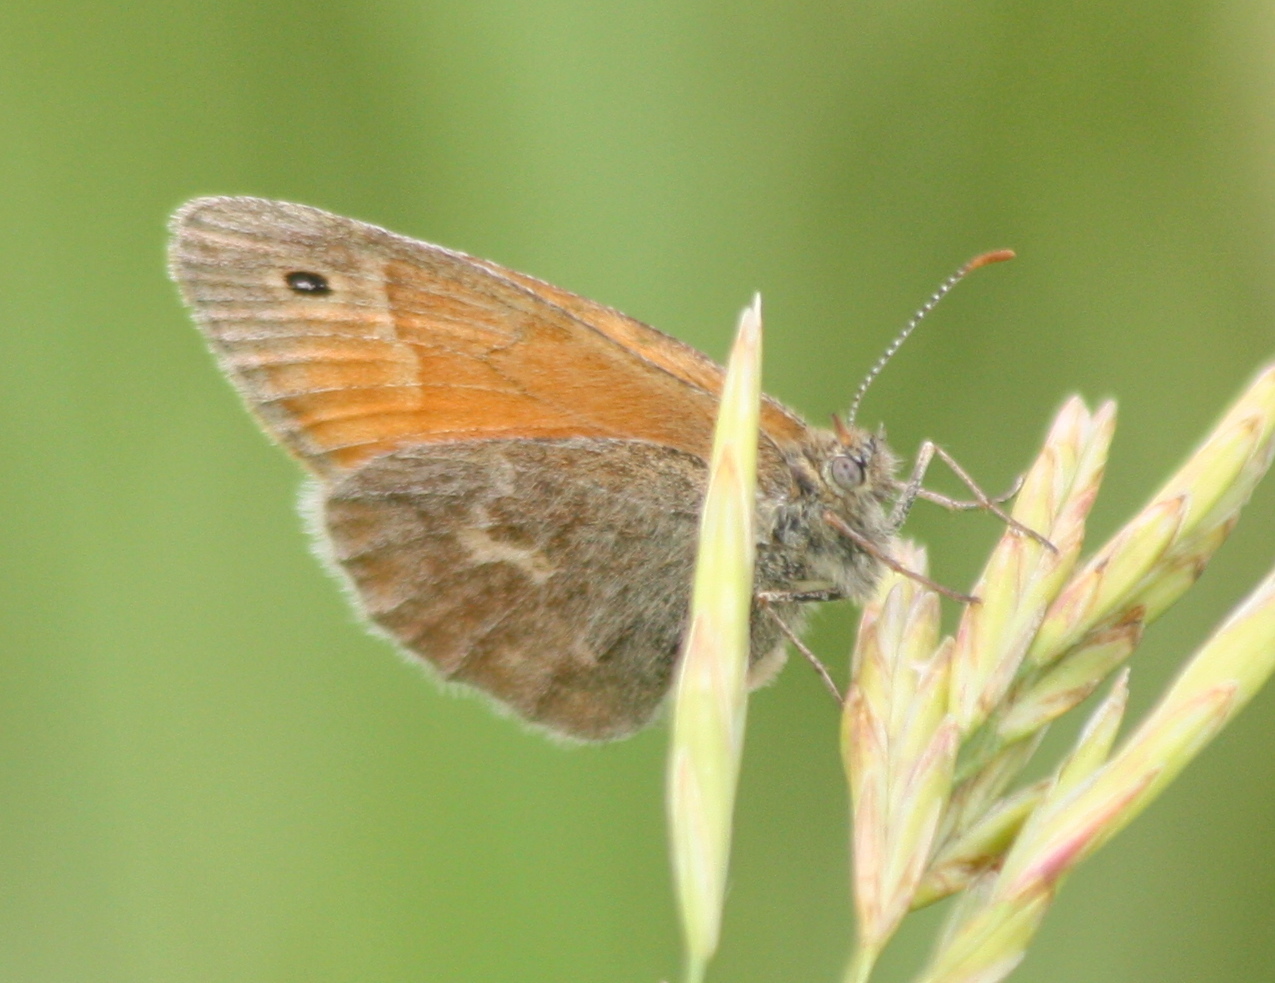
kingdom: Animalia
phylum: Arthropoda
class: Insecta
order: Lepidoptera
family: Nymphalidae
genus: Coenonympha
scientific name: Coenonympha california
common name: Common ringlet
